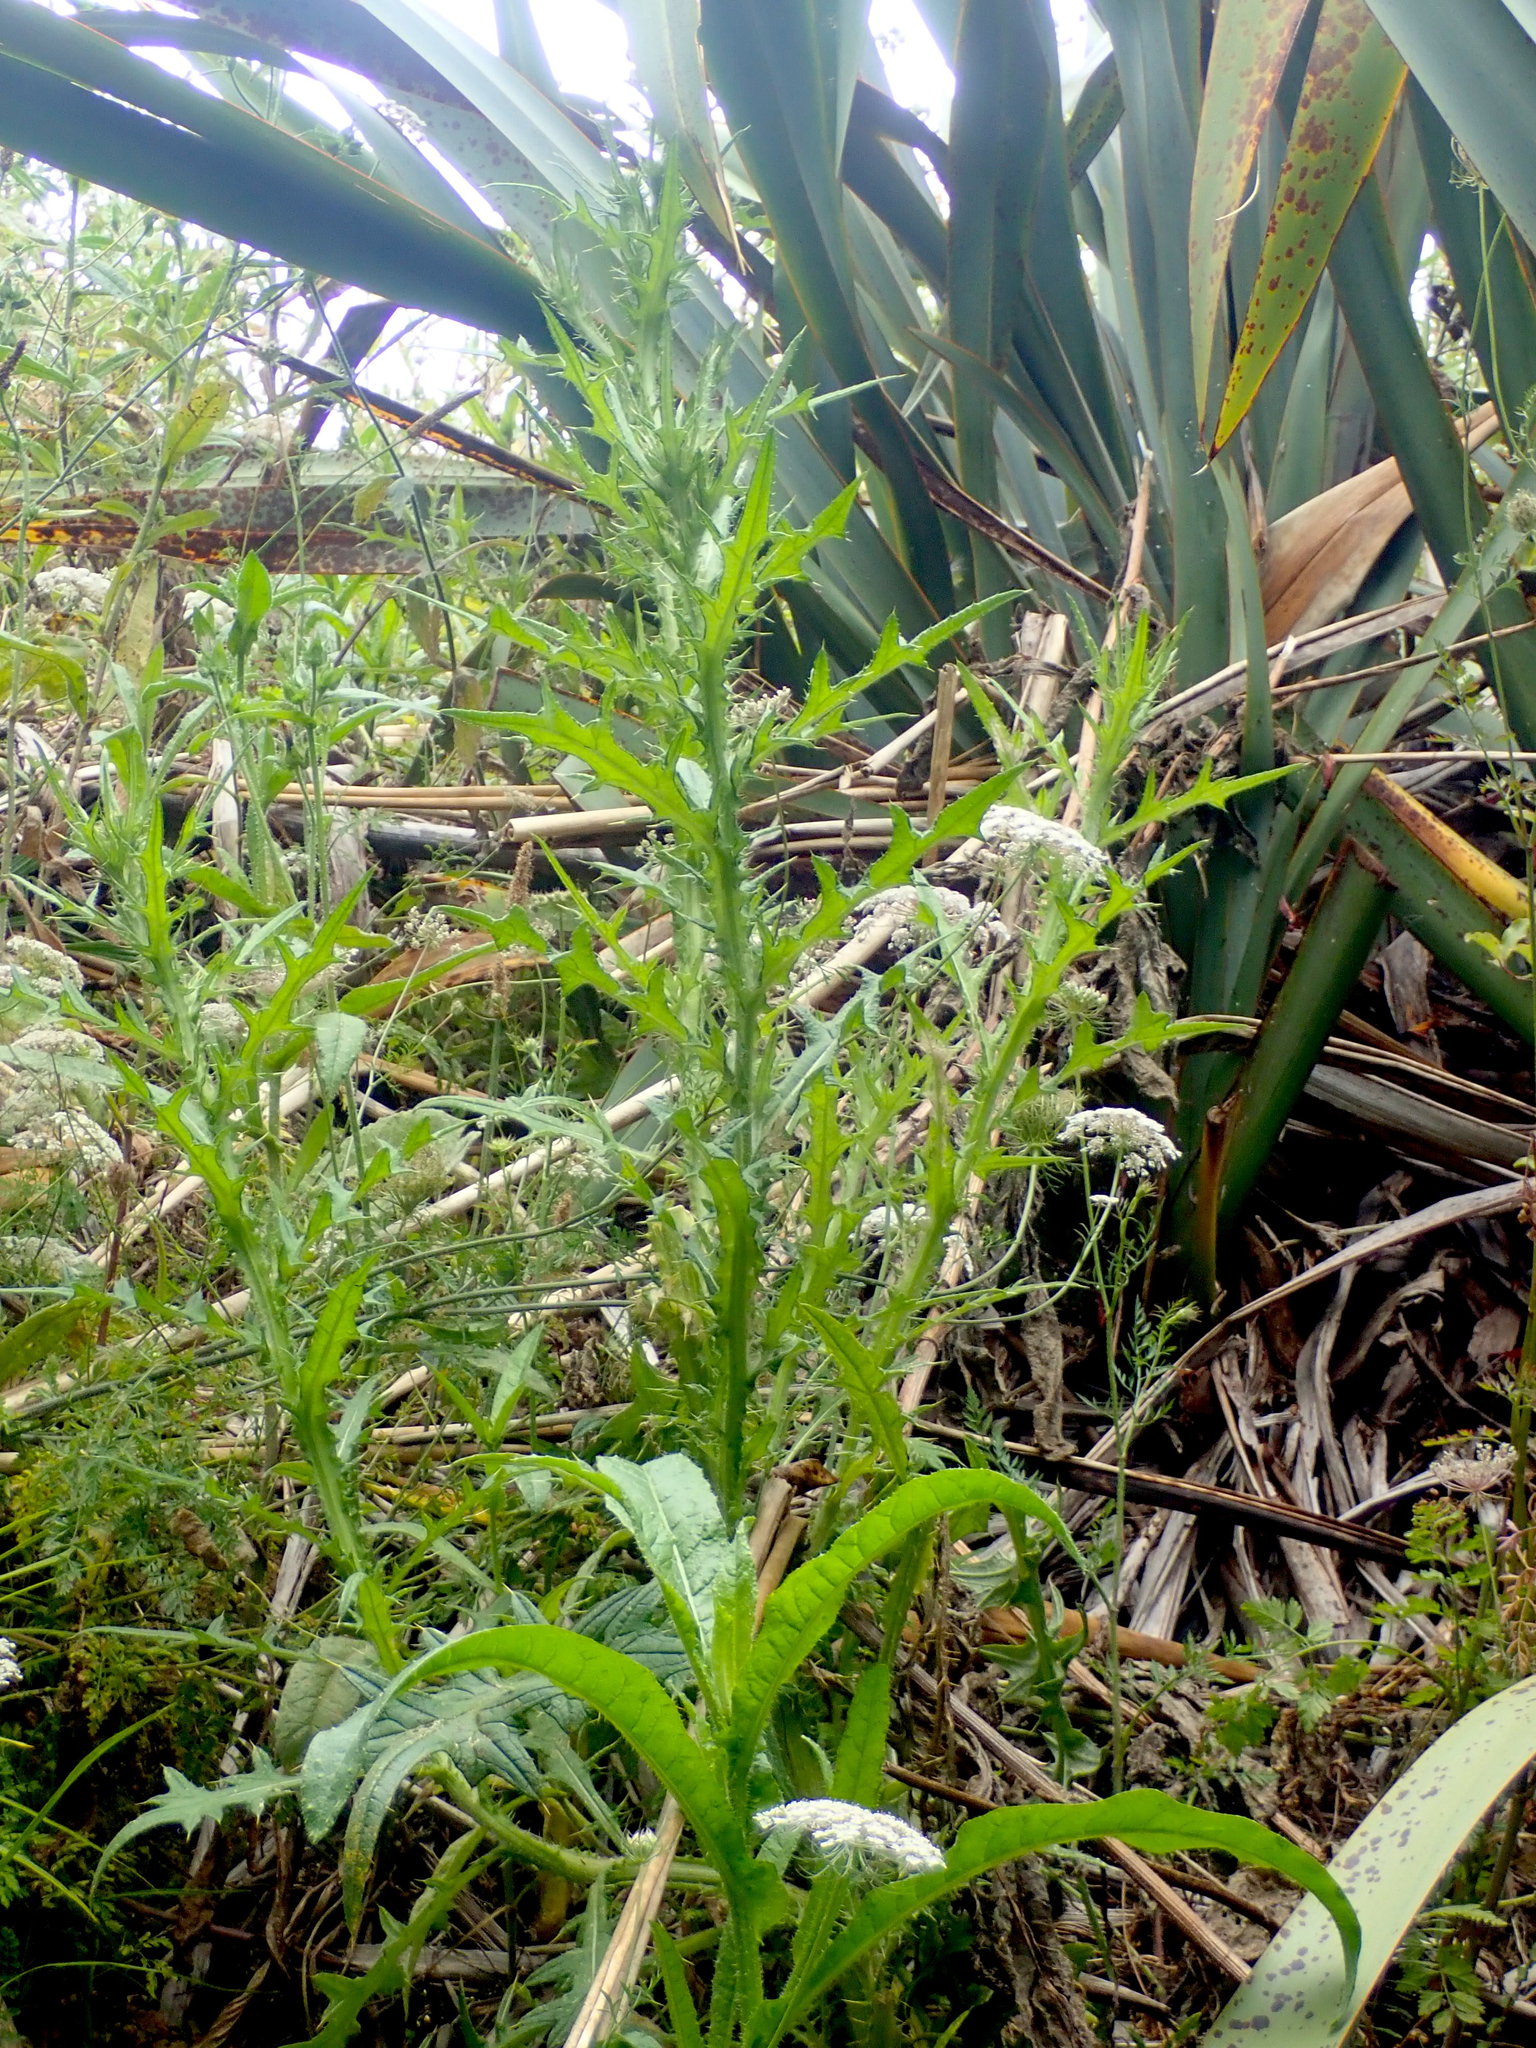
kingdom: Plantae
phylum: Tracheophyta
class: Magnoliopsida
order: Asterales
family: Asteraceae
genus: Cirsium
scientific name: Cirsium vulgare
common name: Bull thistle
